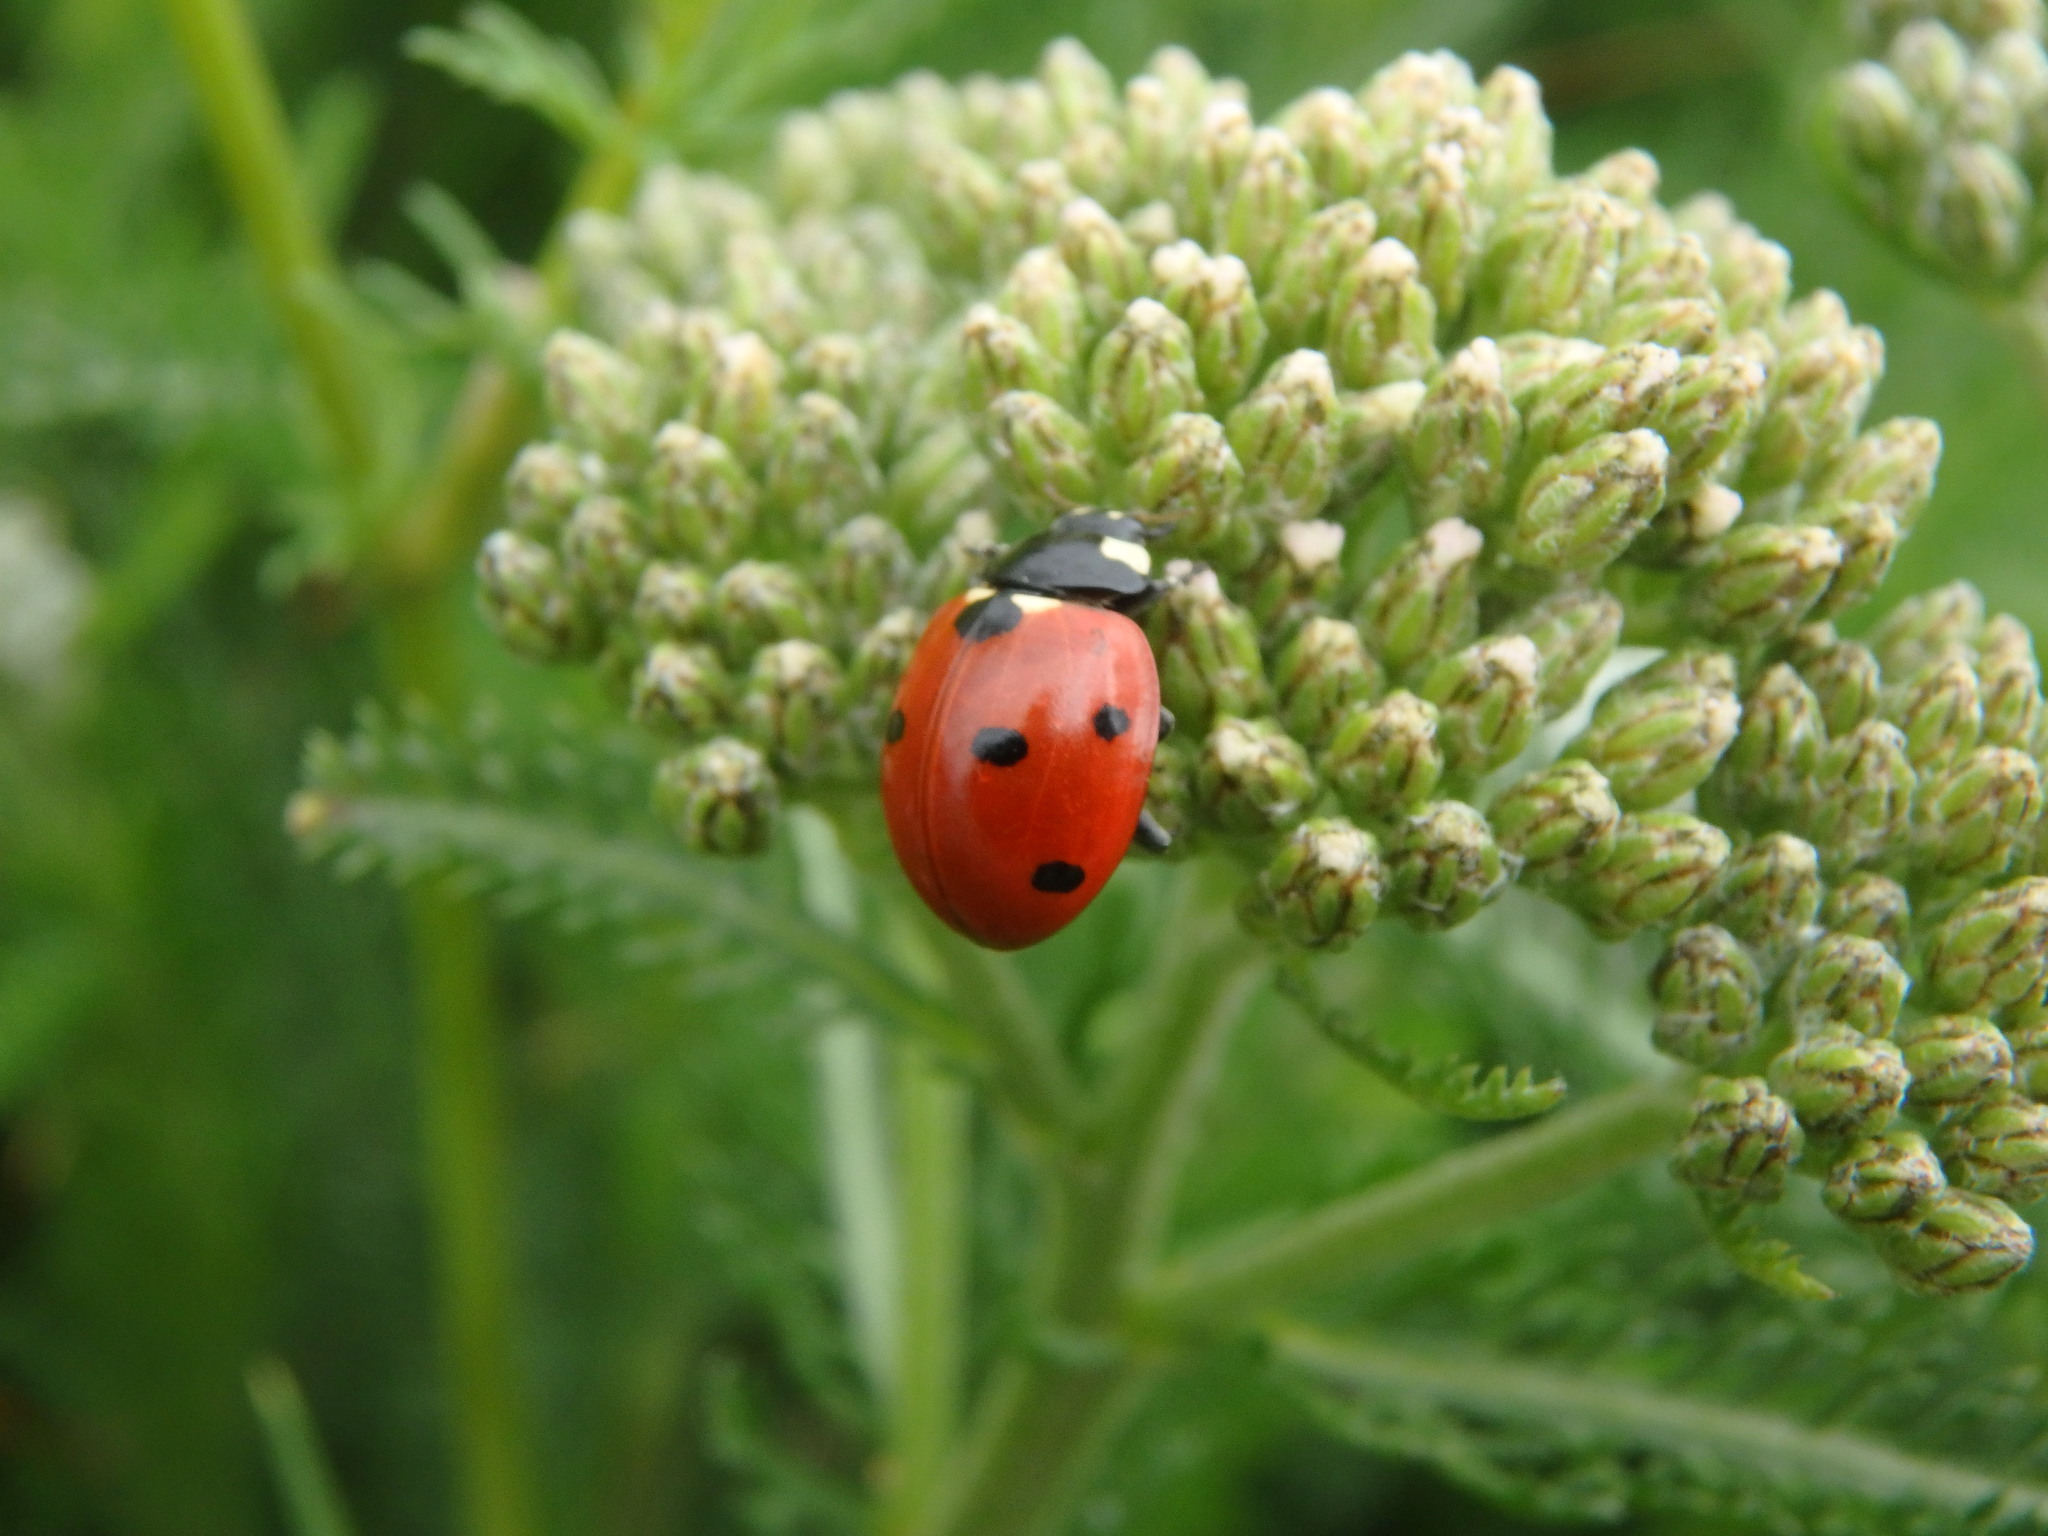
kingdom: Animalia
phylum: Arthropoda
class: Insecta
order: Coleoptera
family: Coccinellidae
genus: Coccinella
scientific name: Coccinella septempunctata
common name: Sevenspotted lady beetle
